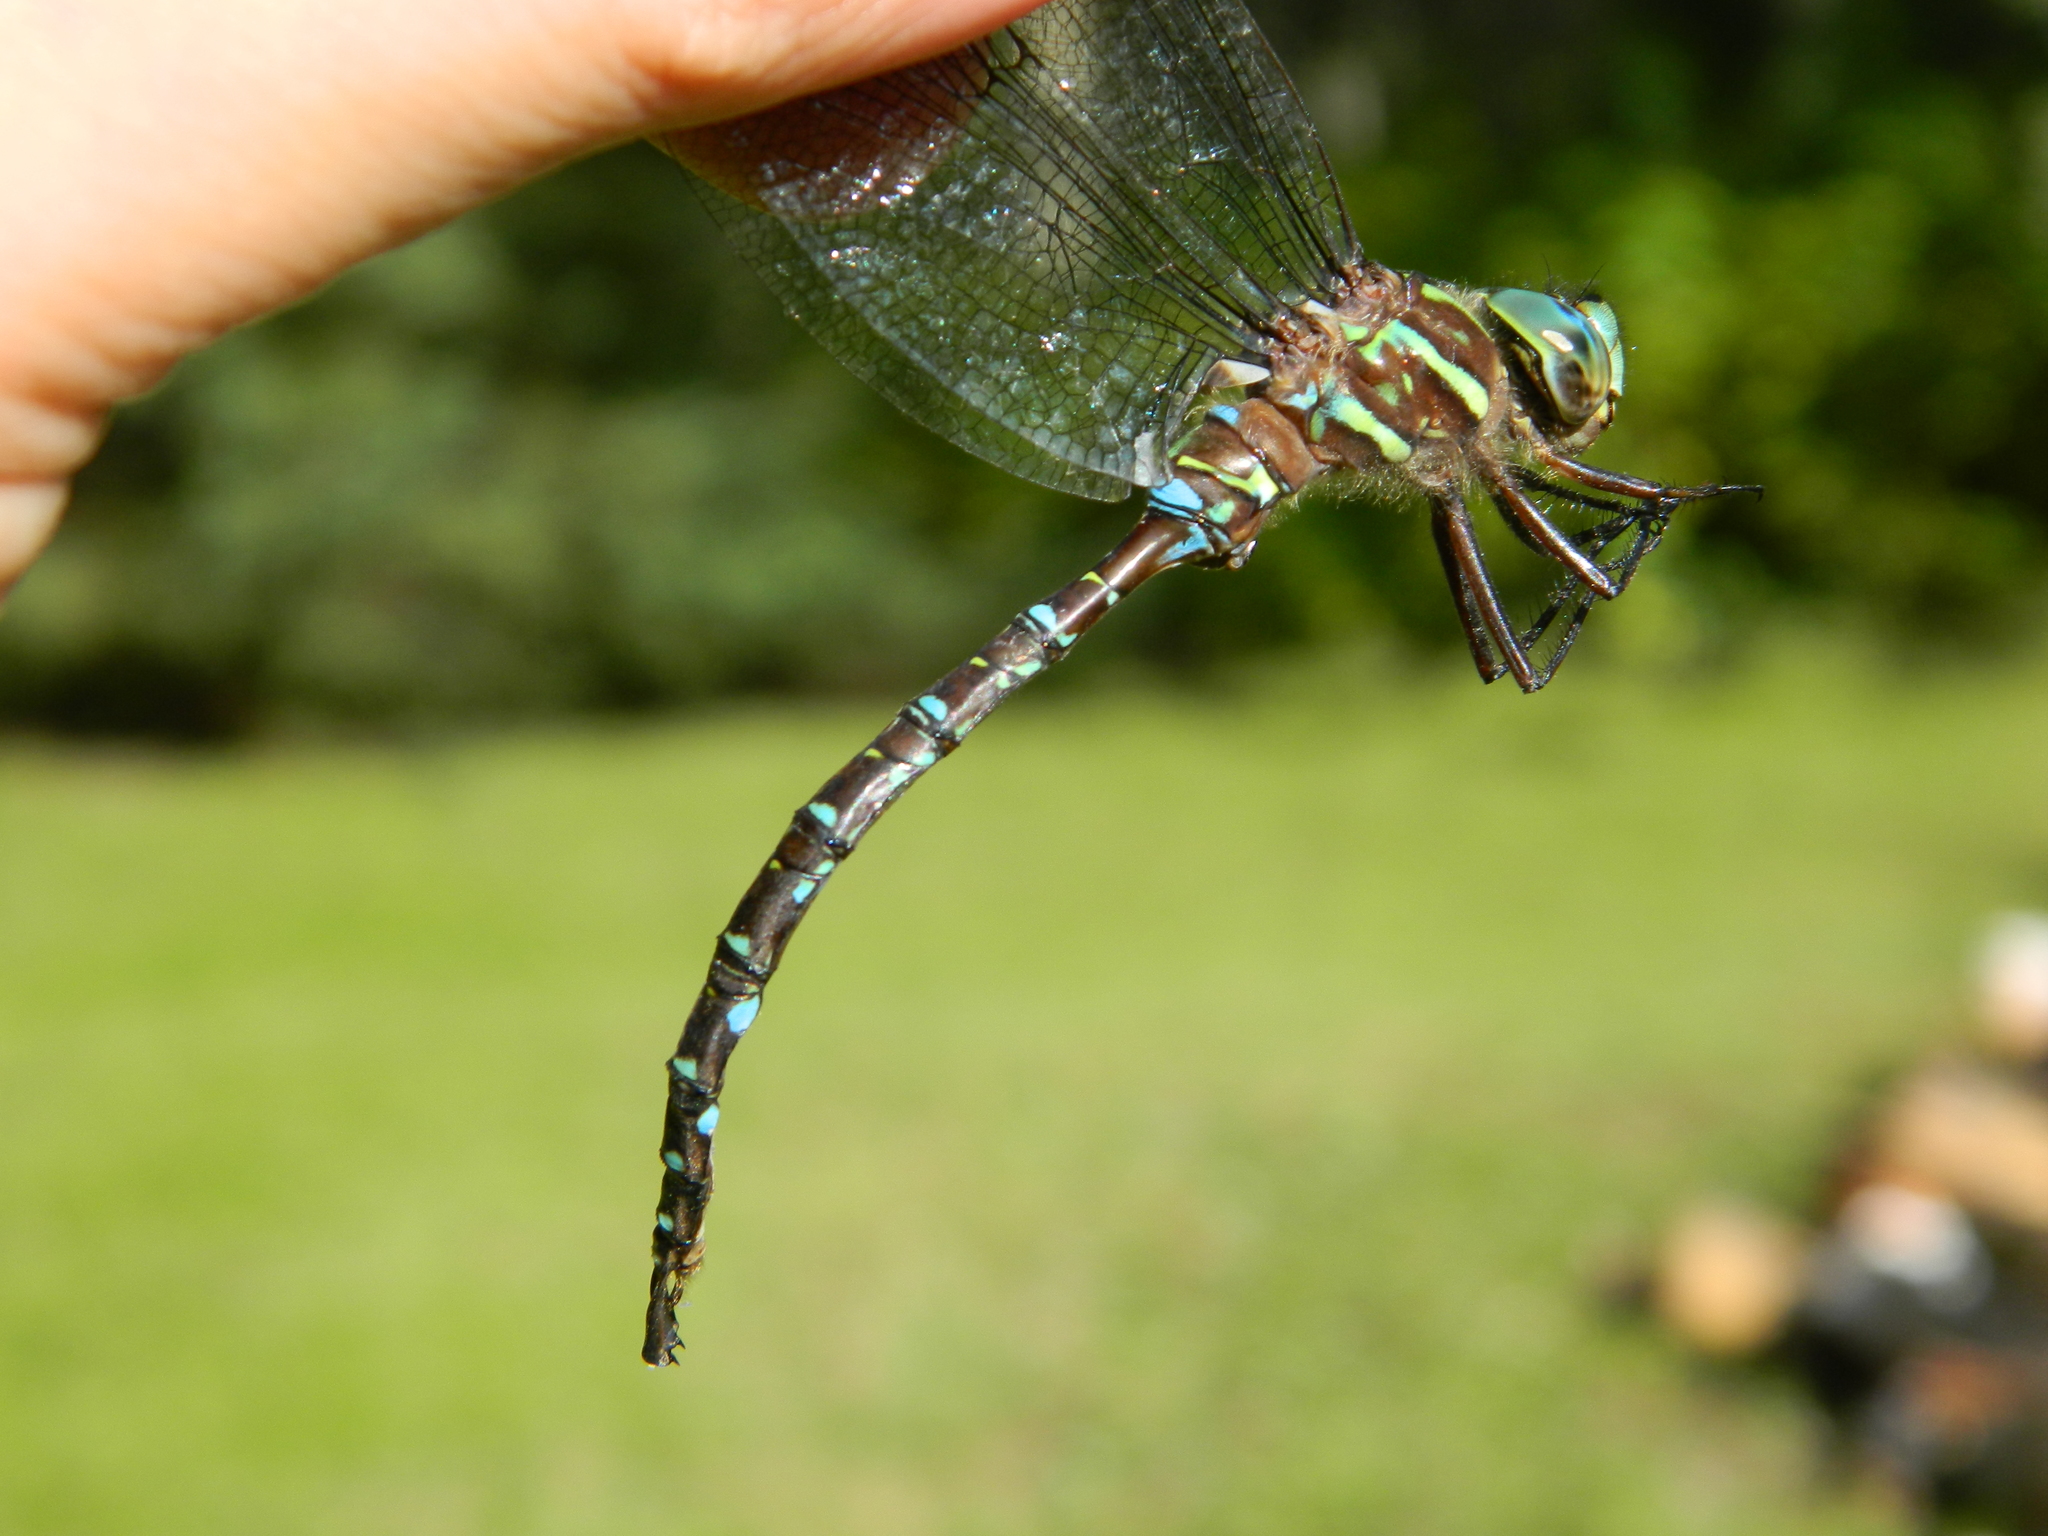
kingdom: Animalia
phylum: Arthropoda
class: Insecta
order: Odonata
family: Aeshnidae
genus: Aeshna
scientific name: Aeshna umbrosa
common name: Shadow darner
